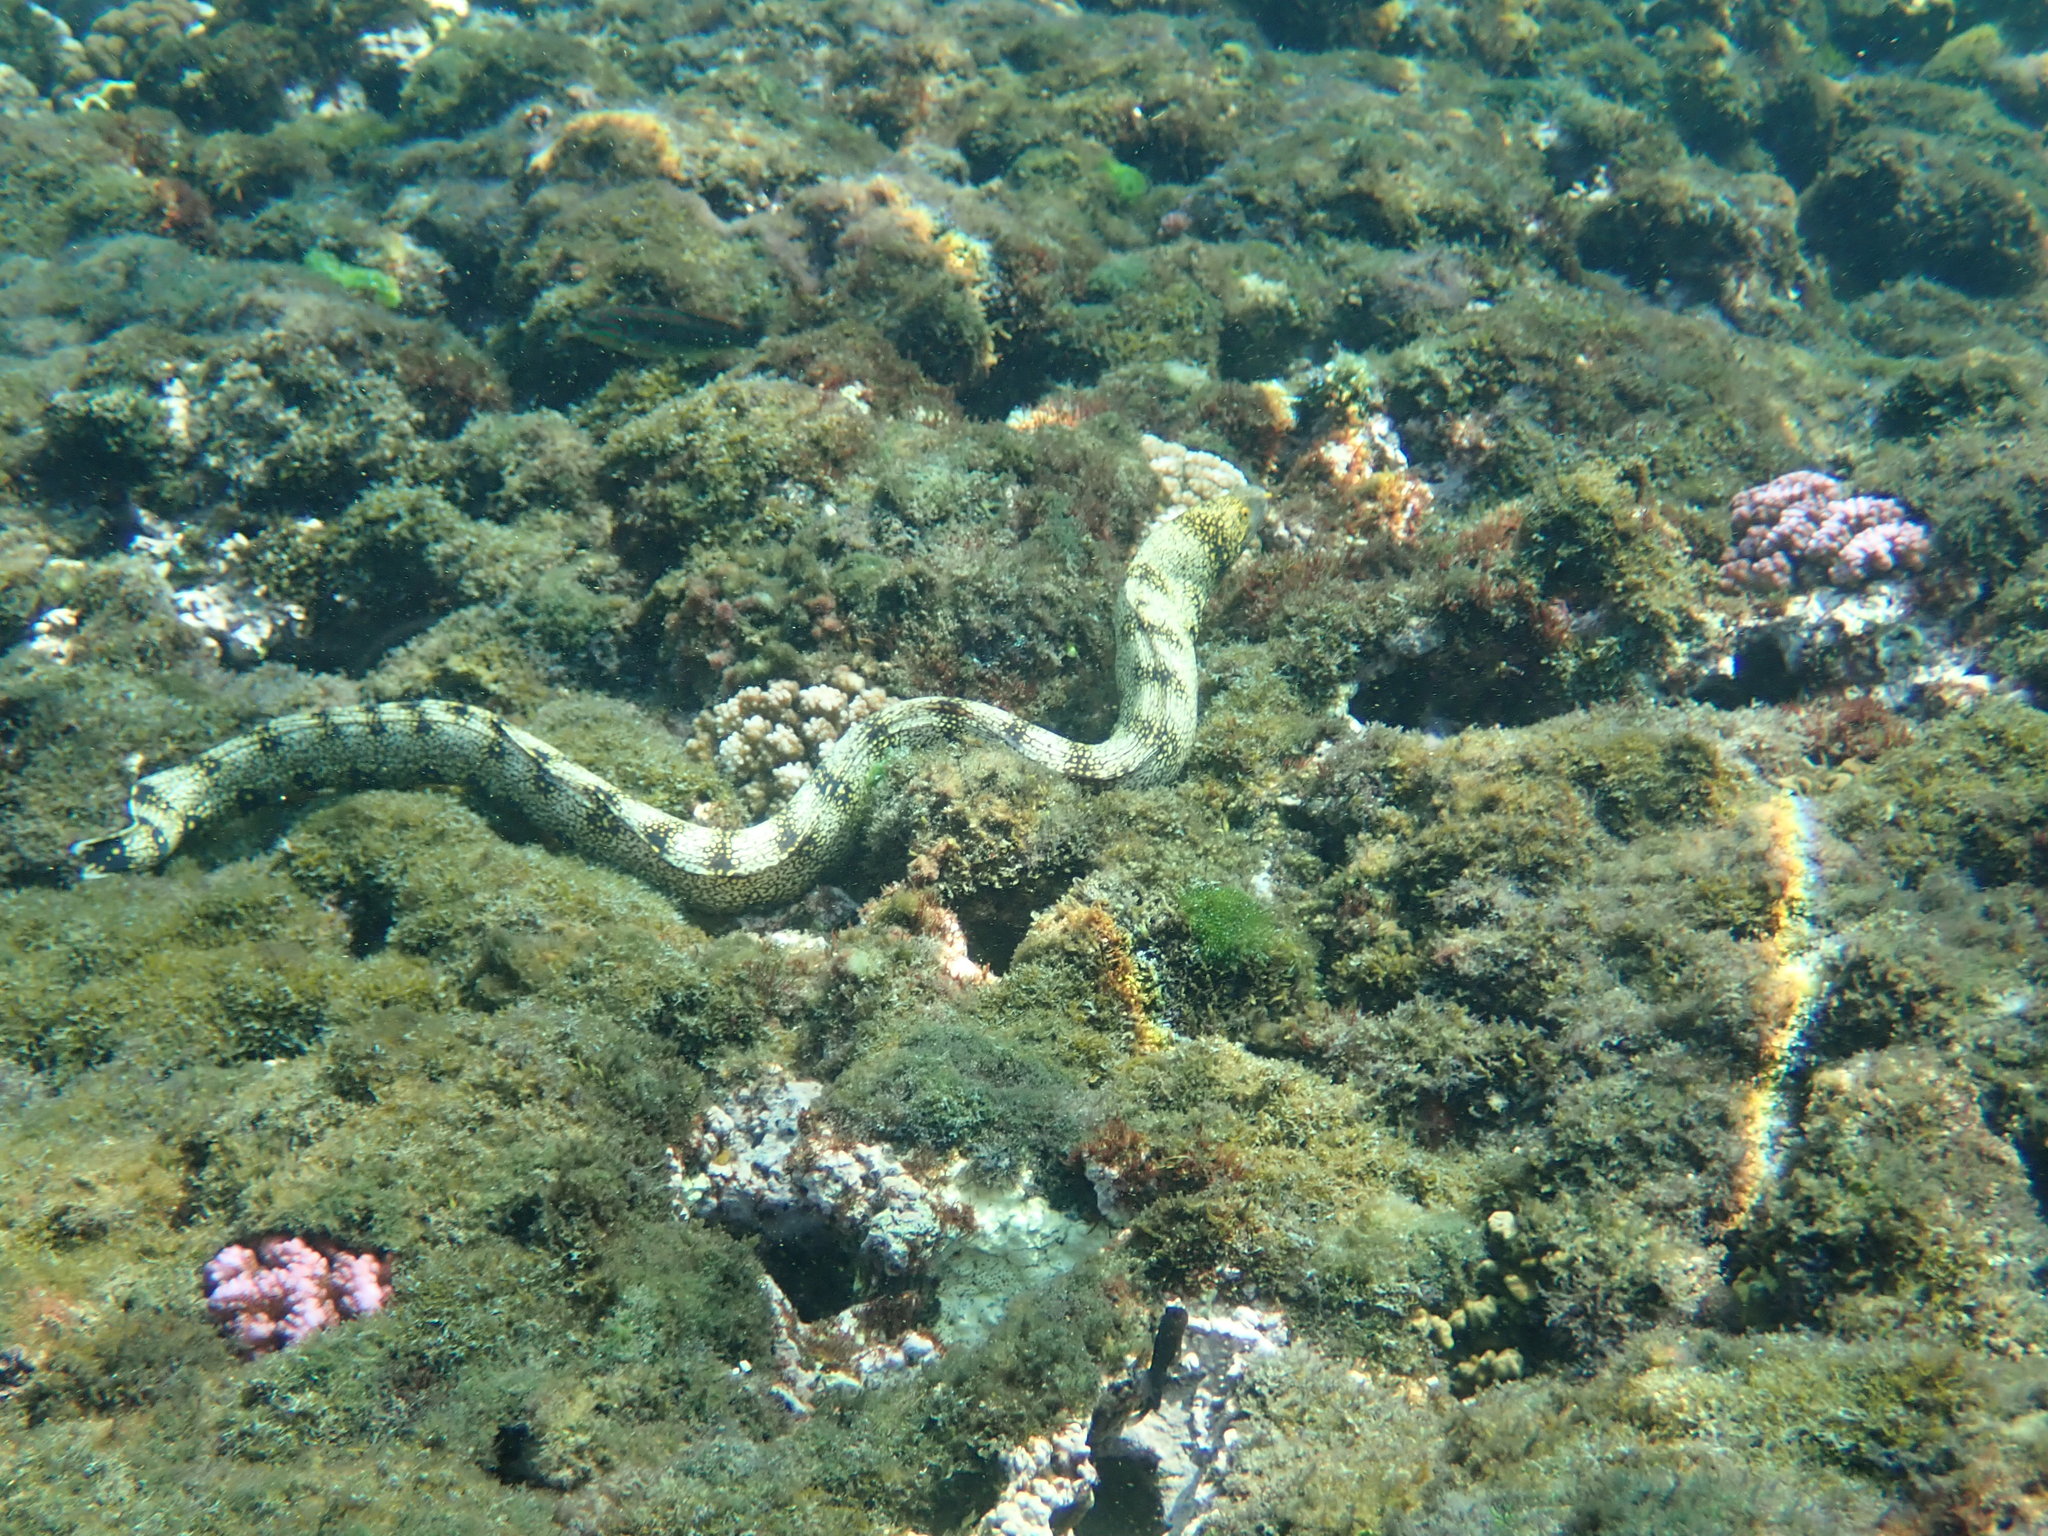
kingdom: Animalia
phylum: Chordata
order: Anguilliformes
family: Muraenidae
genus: Echidna
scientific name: Echidna nebulosa
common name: Snowflake moray
